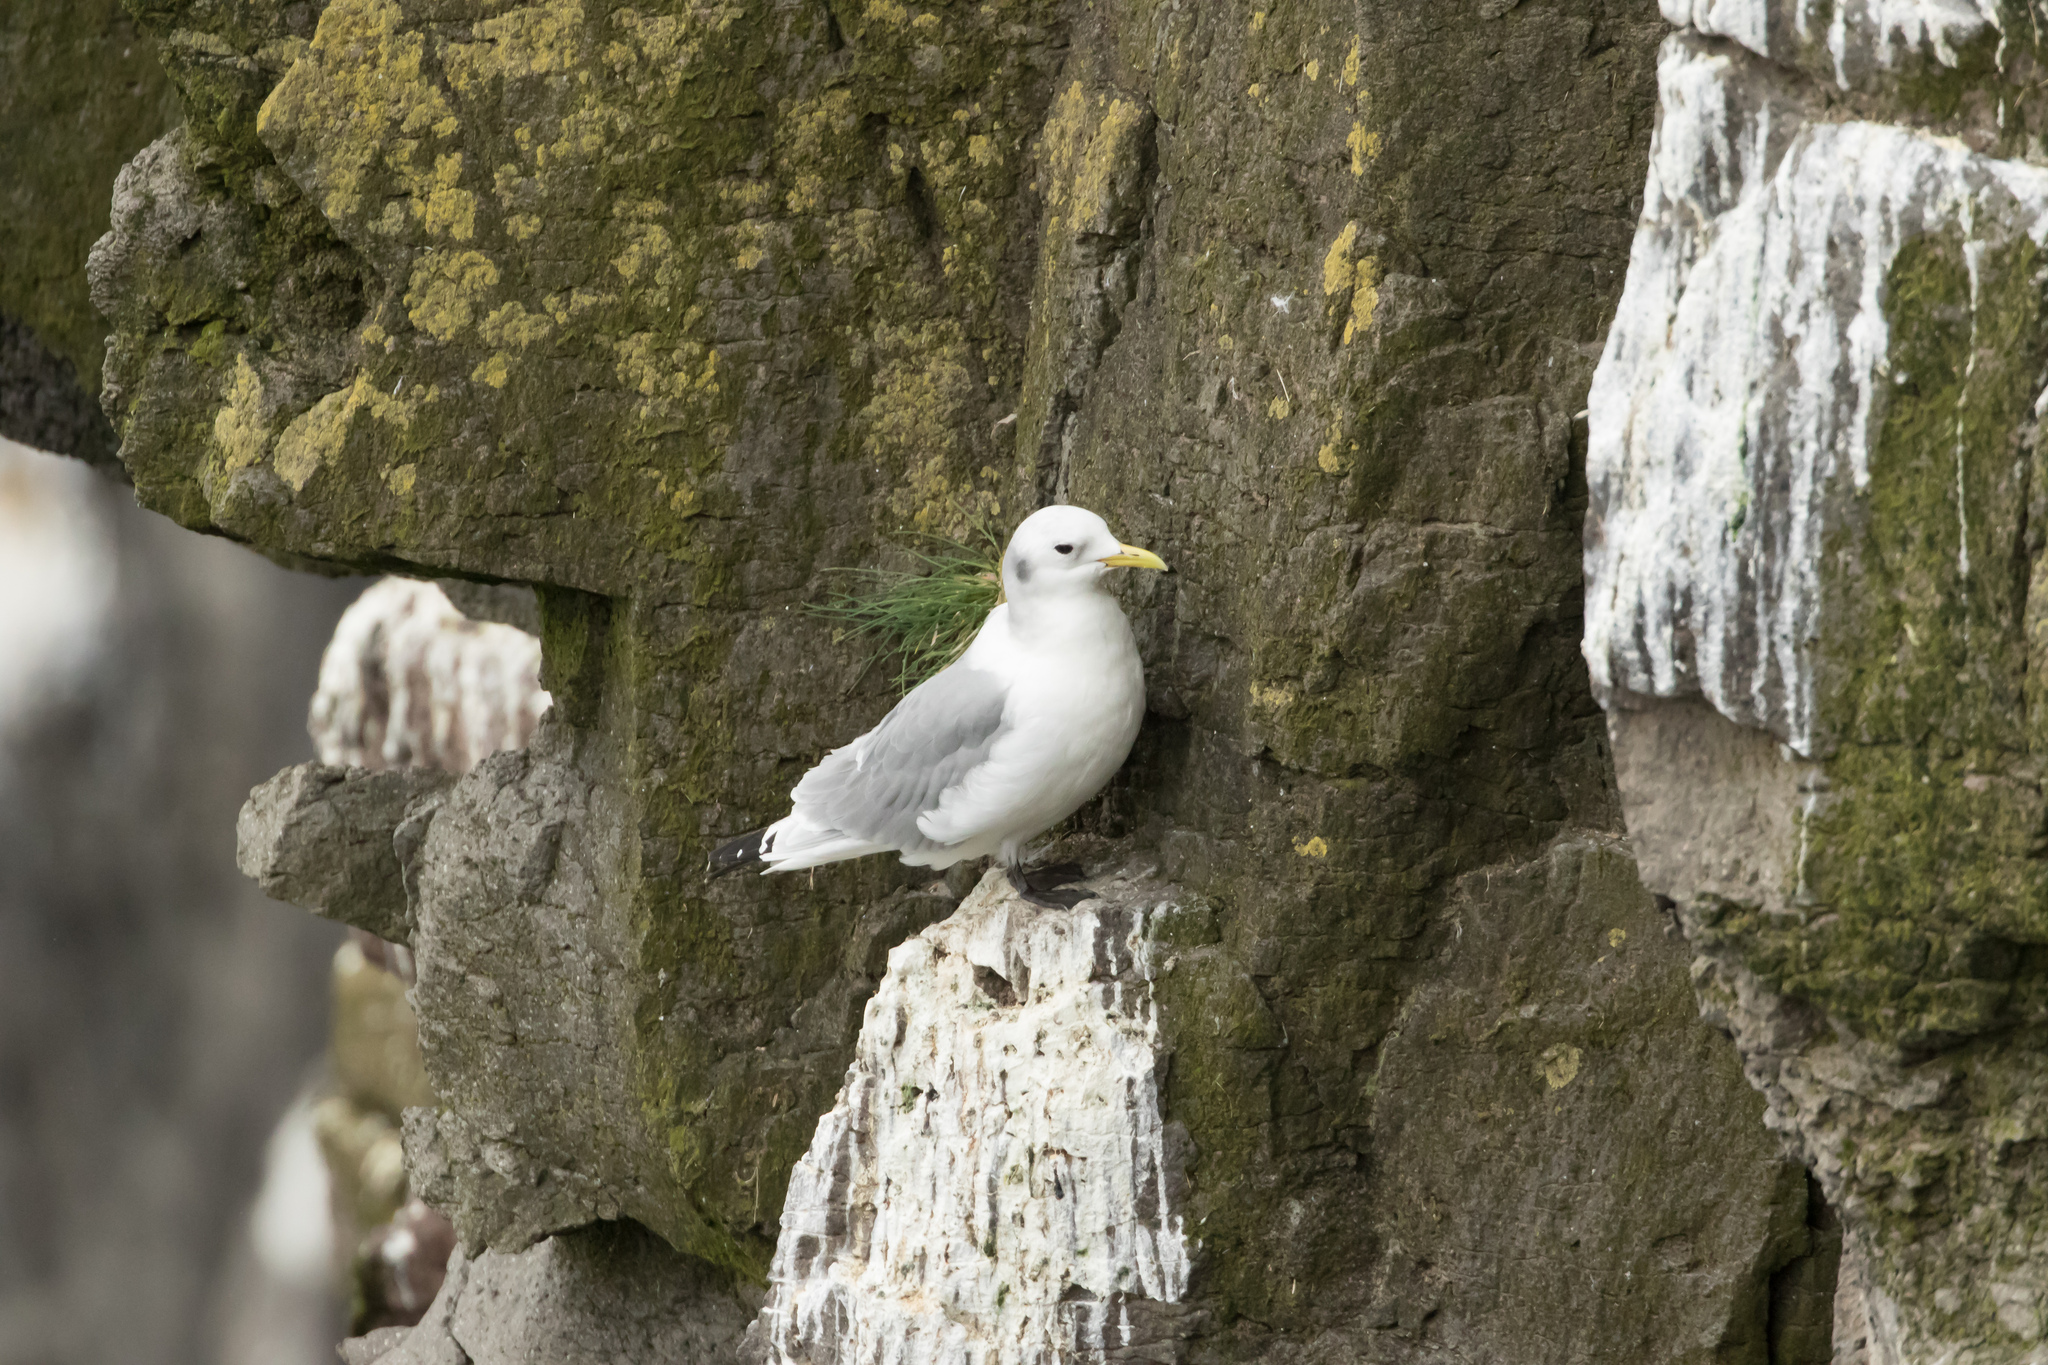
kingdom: Animalia
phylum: Chordata
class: Aves
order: Charadriiformes
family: Laridae
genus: Rissa
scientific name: Rissa tridactyla
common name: Black-legged kittiwake
